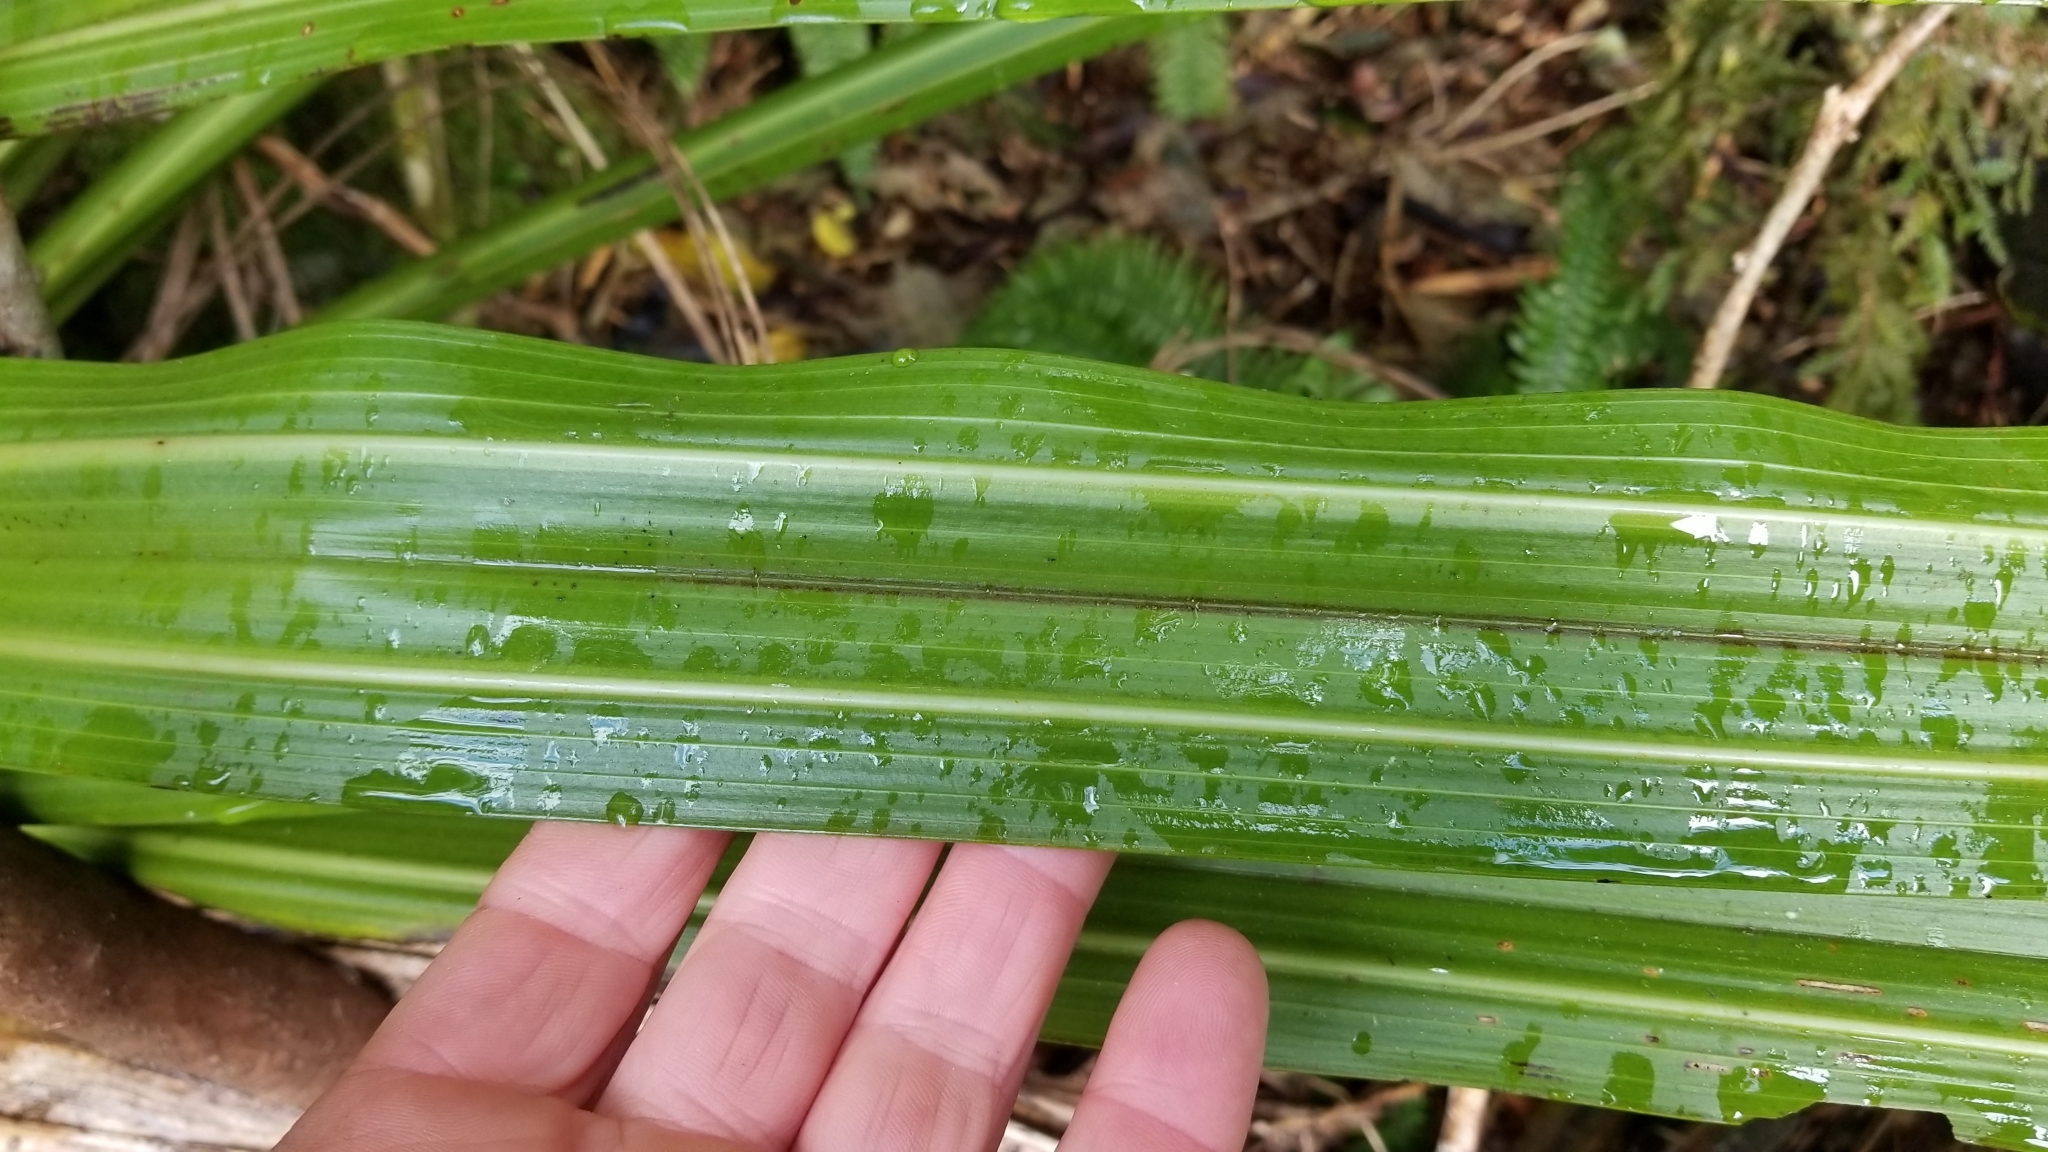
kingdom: Plantae
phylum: Tracheophyta
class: Liliopsida
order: Asparagales
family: Asteliaceae
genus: Astelia
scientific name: Astelia fragrans
